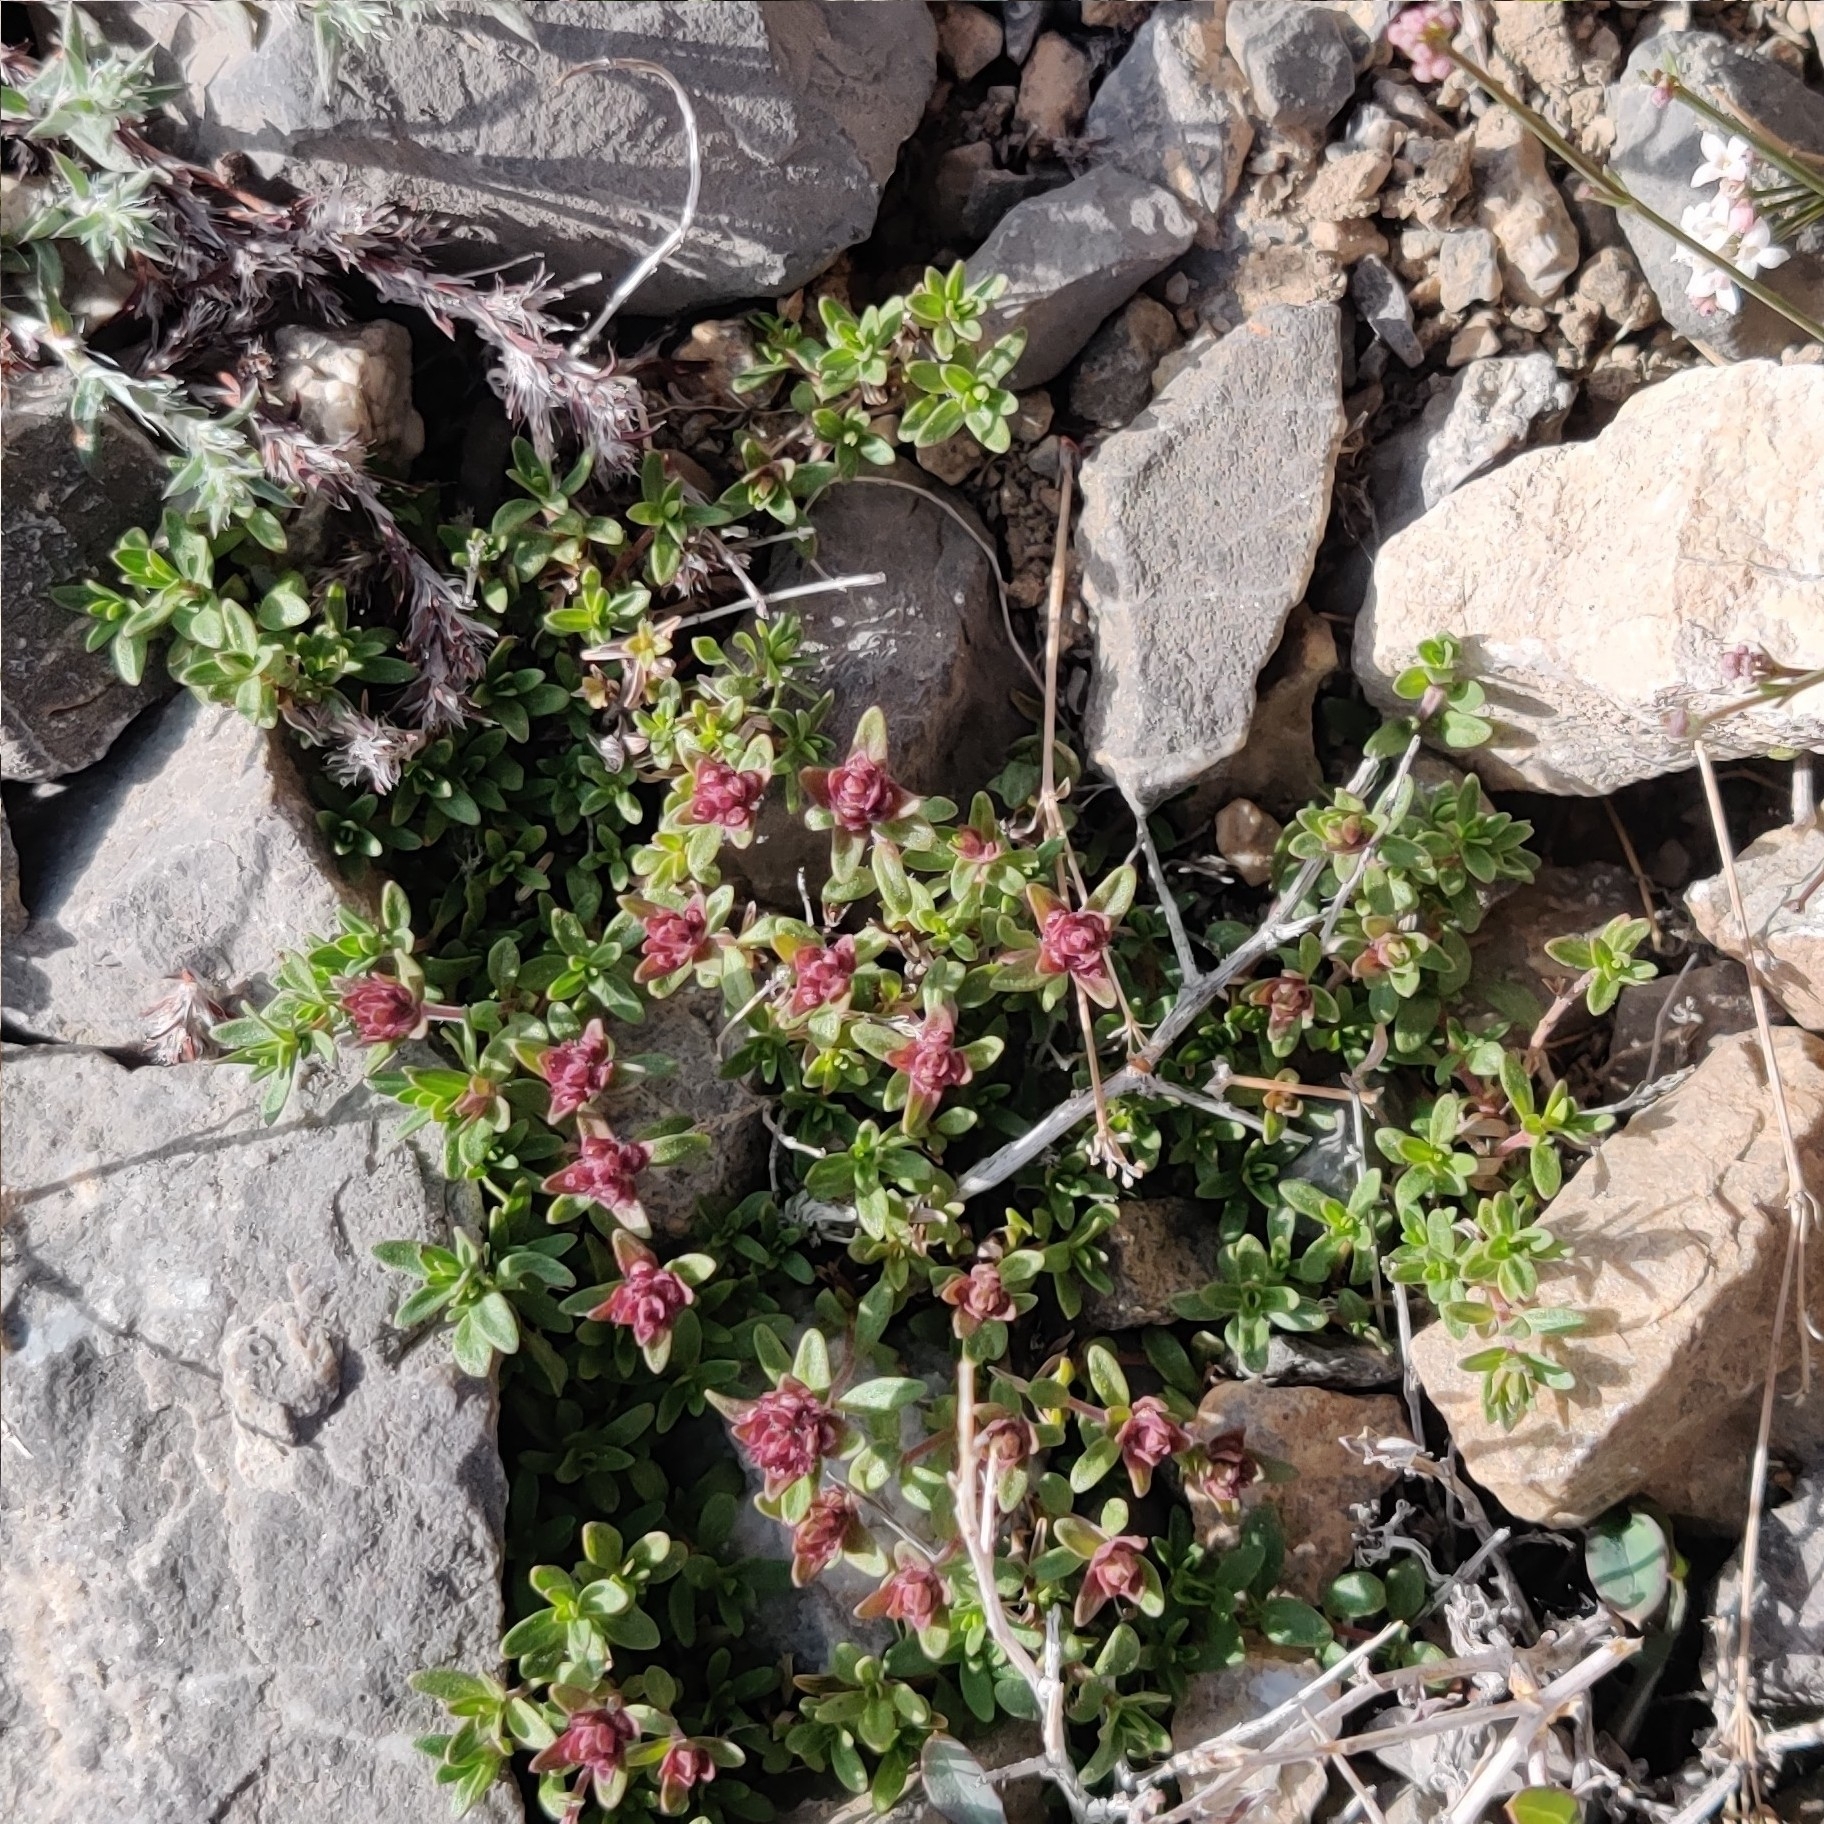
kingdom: Plantae
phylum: Tracheophyta
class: Magnoliopsida
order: Lamiales
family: Lamiaceae
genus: Thymus
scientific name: Thymus linearis
